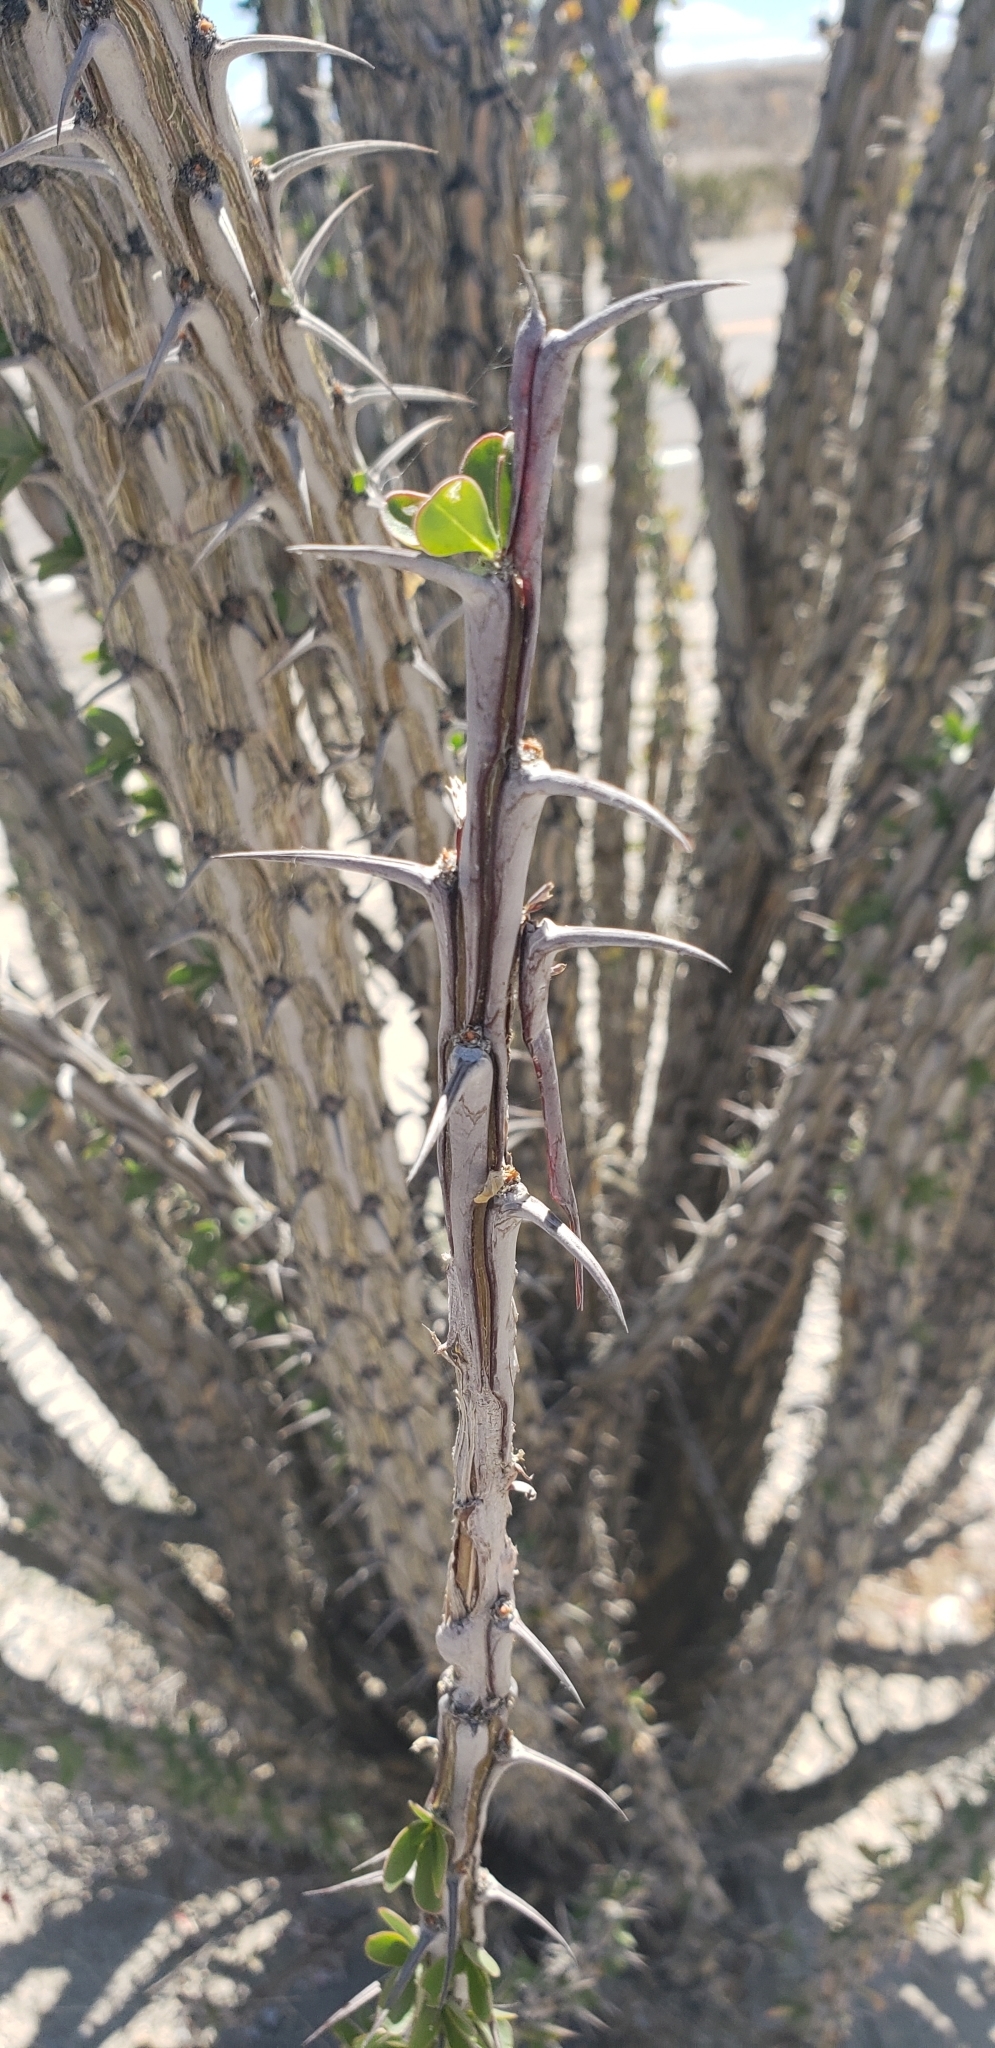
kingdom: Plantae
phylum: Tracheophyta
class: Magnoliopsida
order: Ericales
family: Fouquieriaceae
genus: Fouquieria
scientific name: Fouquieria splendens
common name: Vine-cactus
